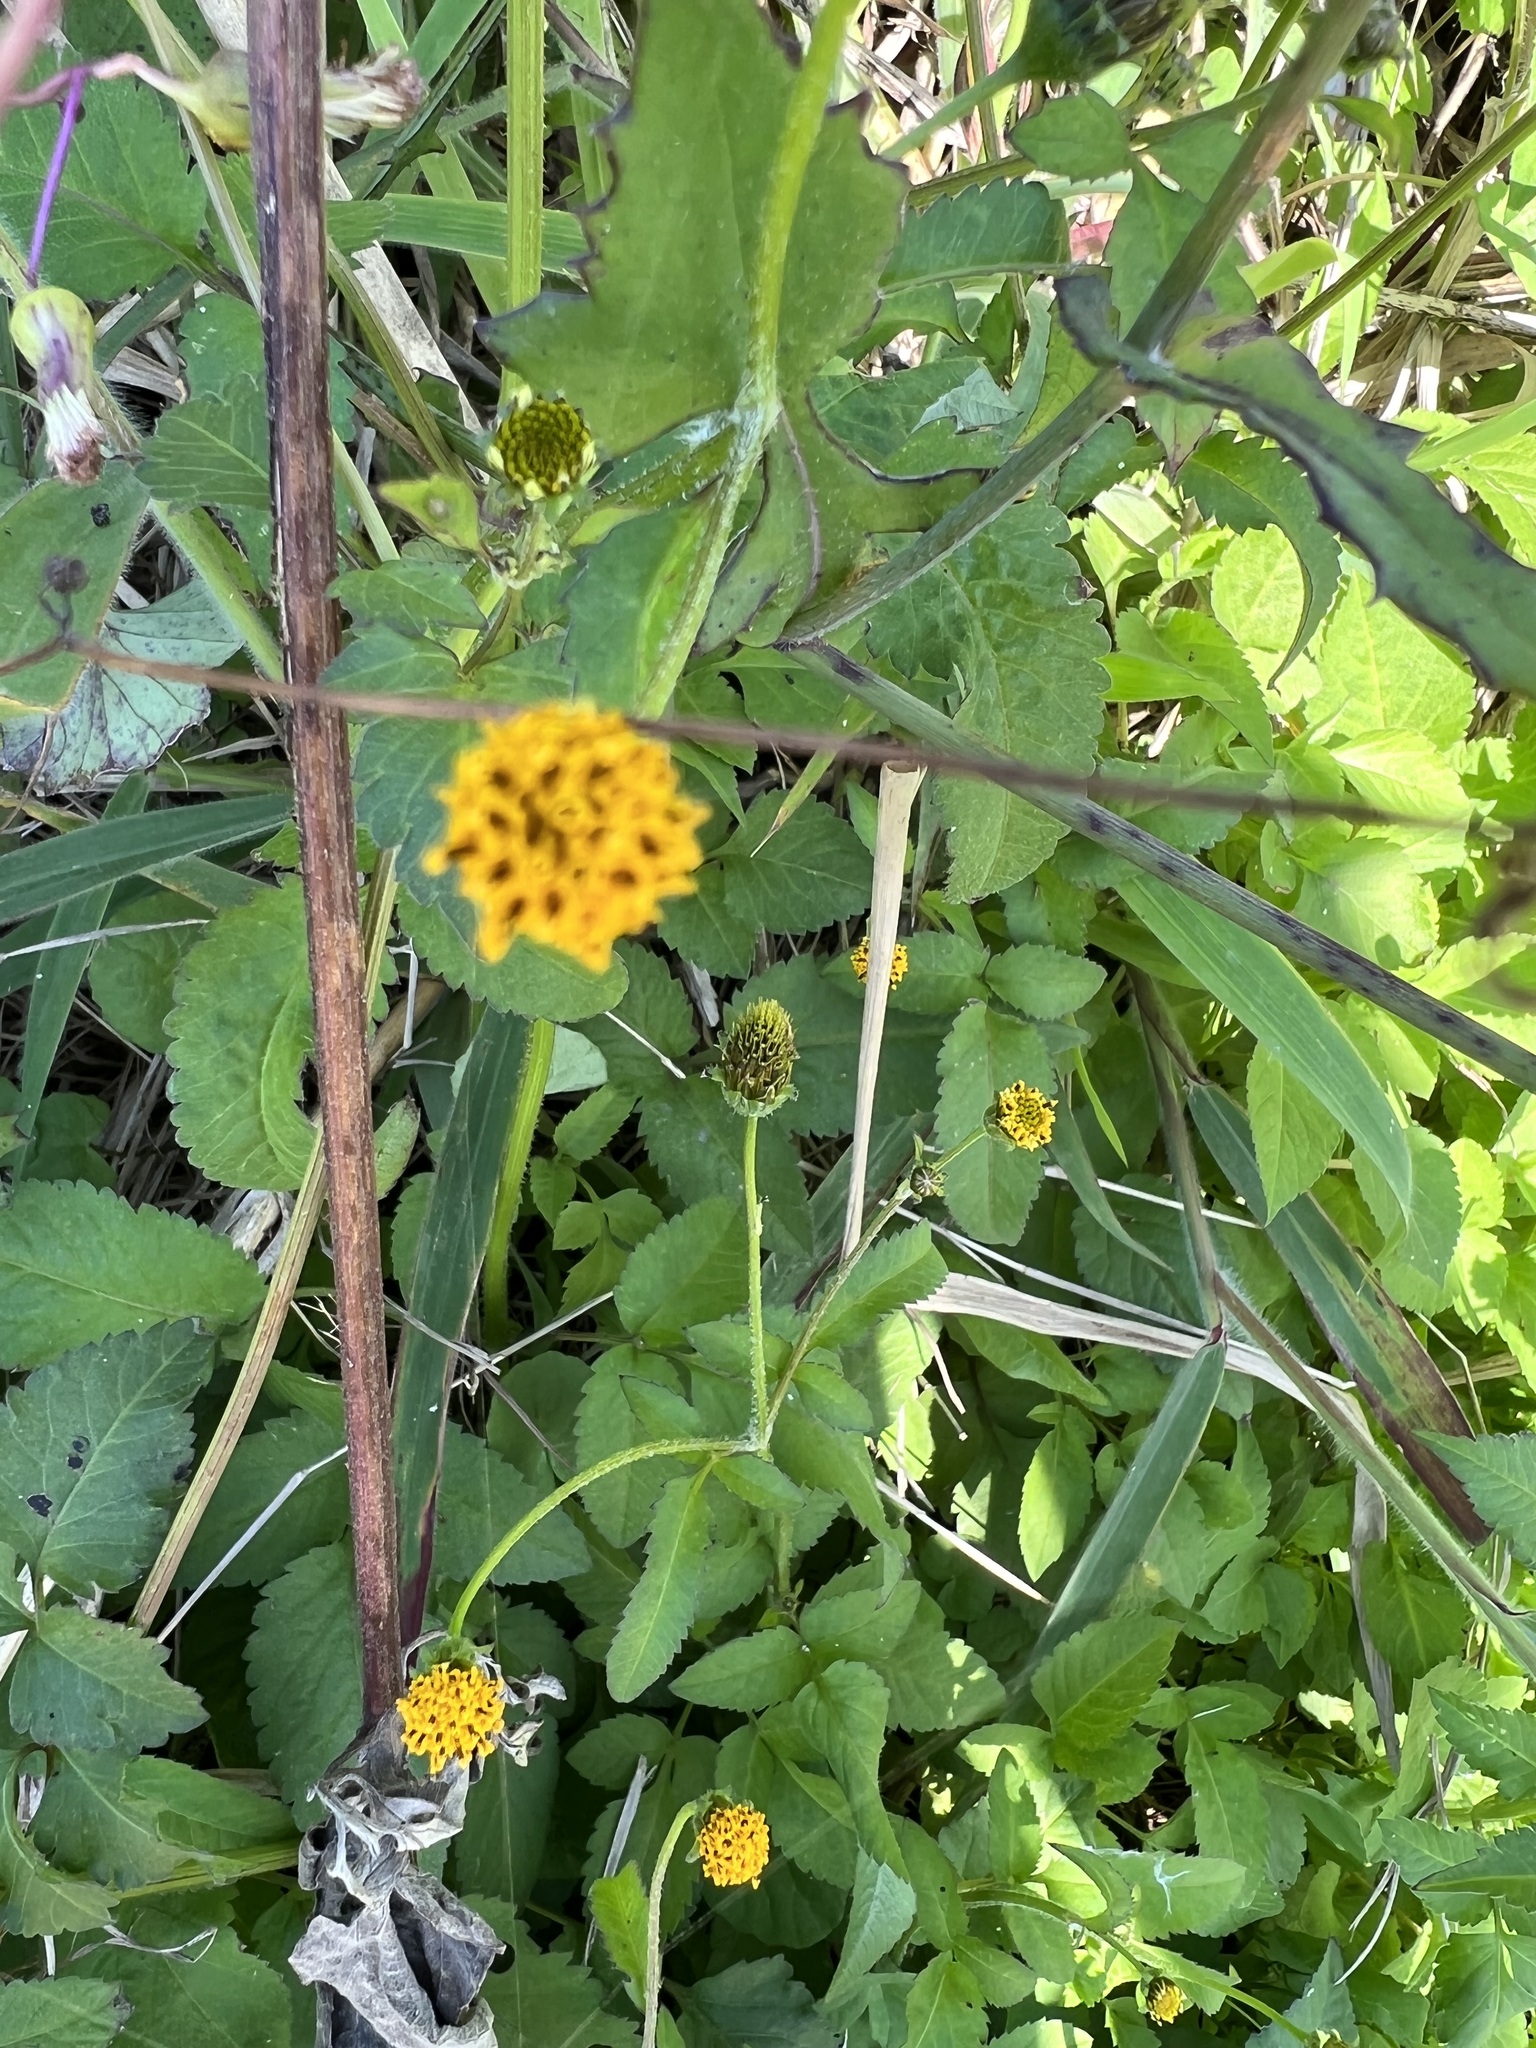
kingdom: Plantae
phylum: Tracheophyta
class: Magnoliopsida
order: Asterales
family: Asteraceae
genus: Bidens
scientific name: Bidens pilosa
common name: Black-jack
